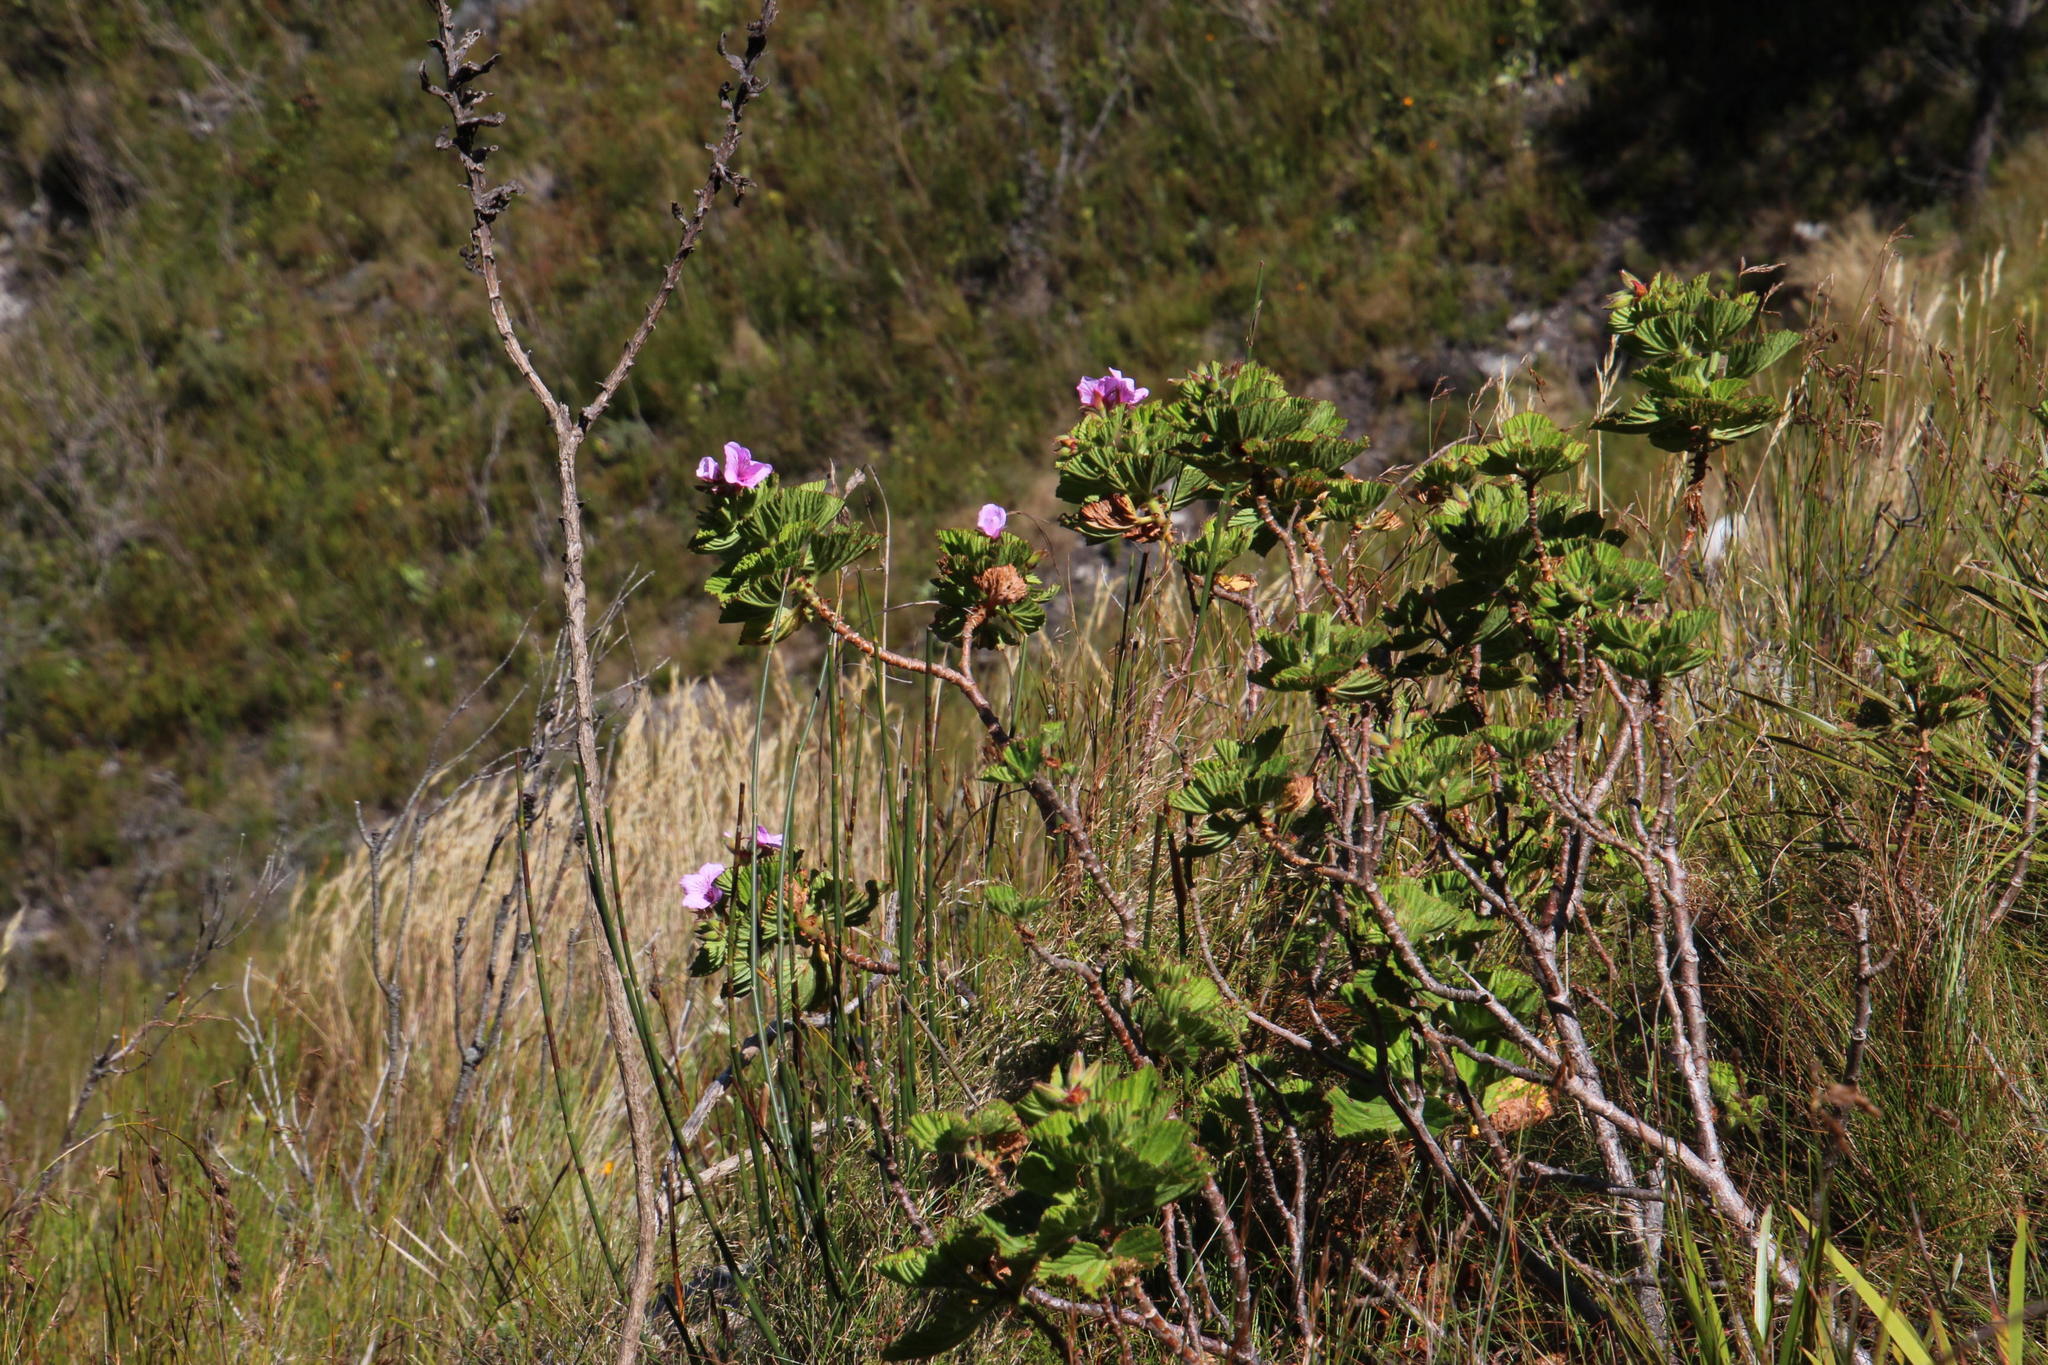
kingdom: Plantae
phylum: Tracheophyta
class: Magnoliopsida
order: Geraniales
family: Geraniaceae
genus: Pelargonium
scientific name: Pelargonium cucullatum
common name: Tree pelargonium
